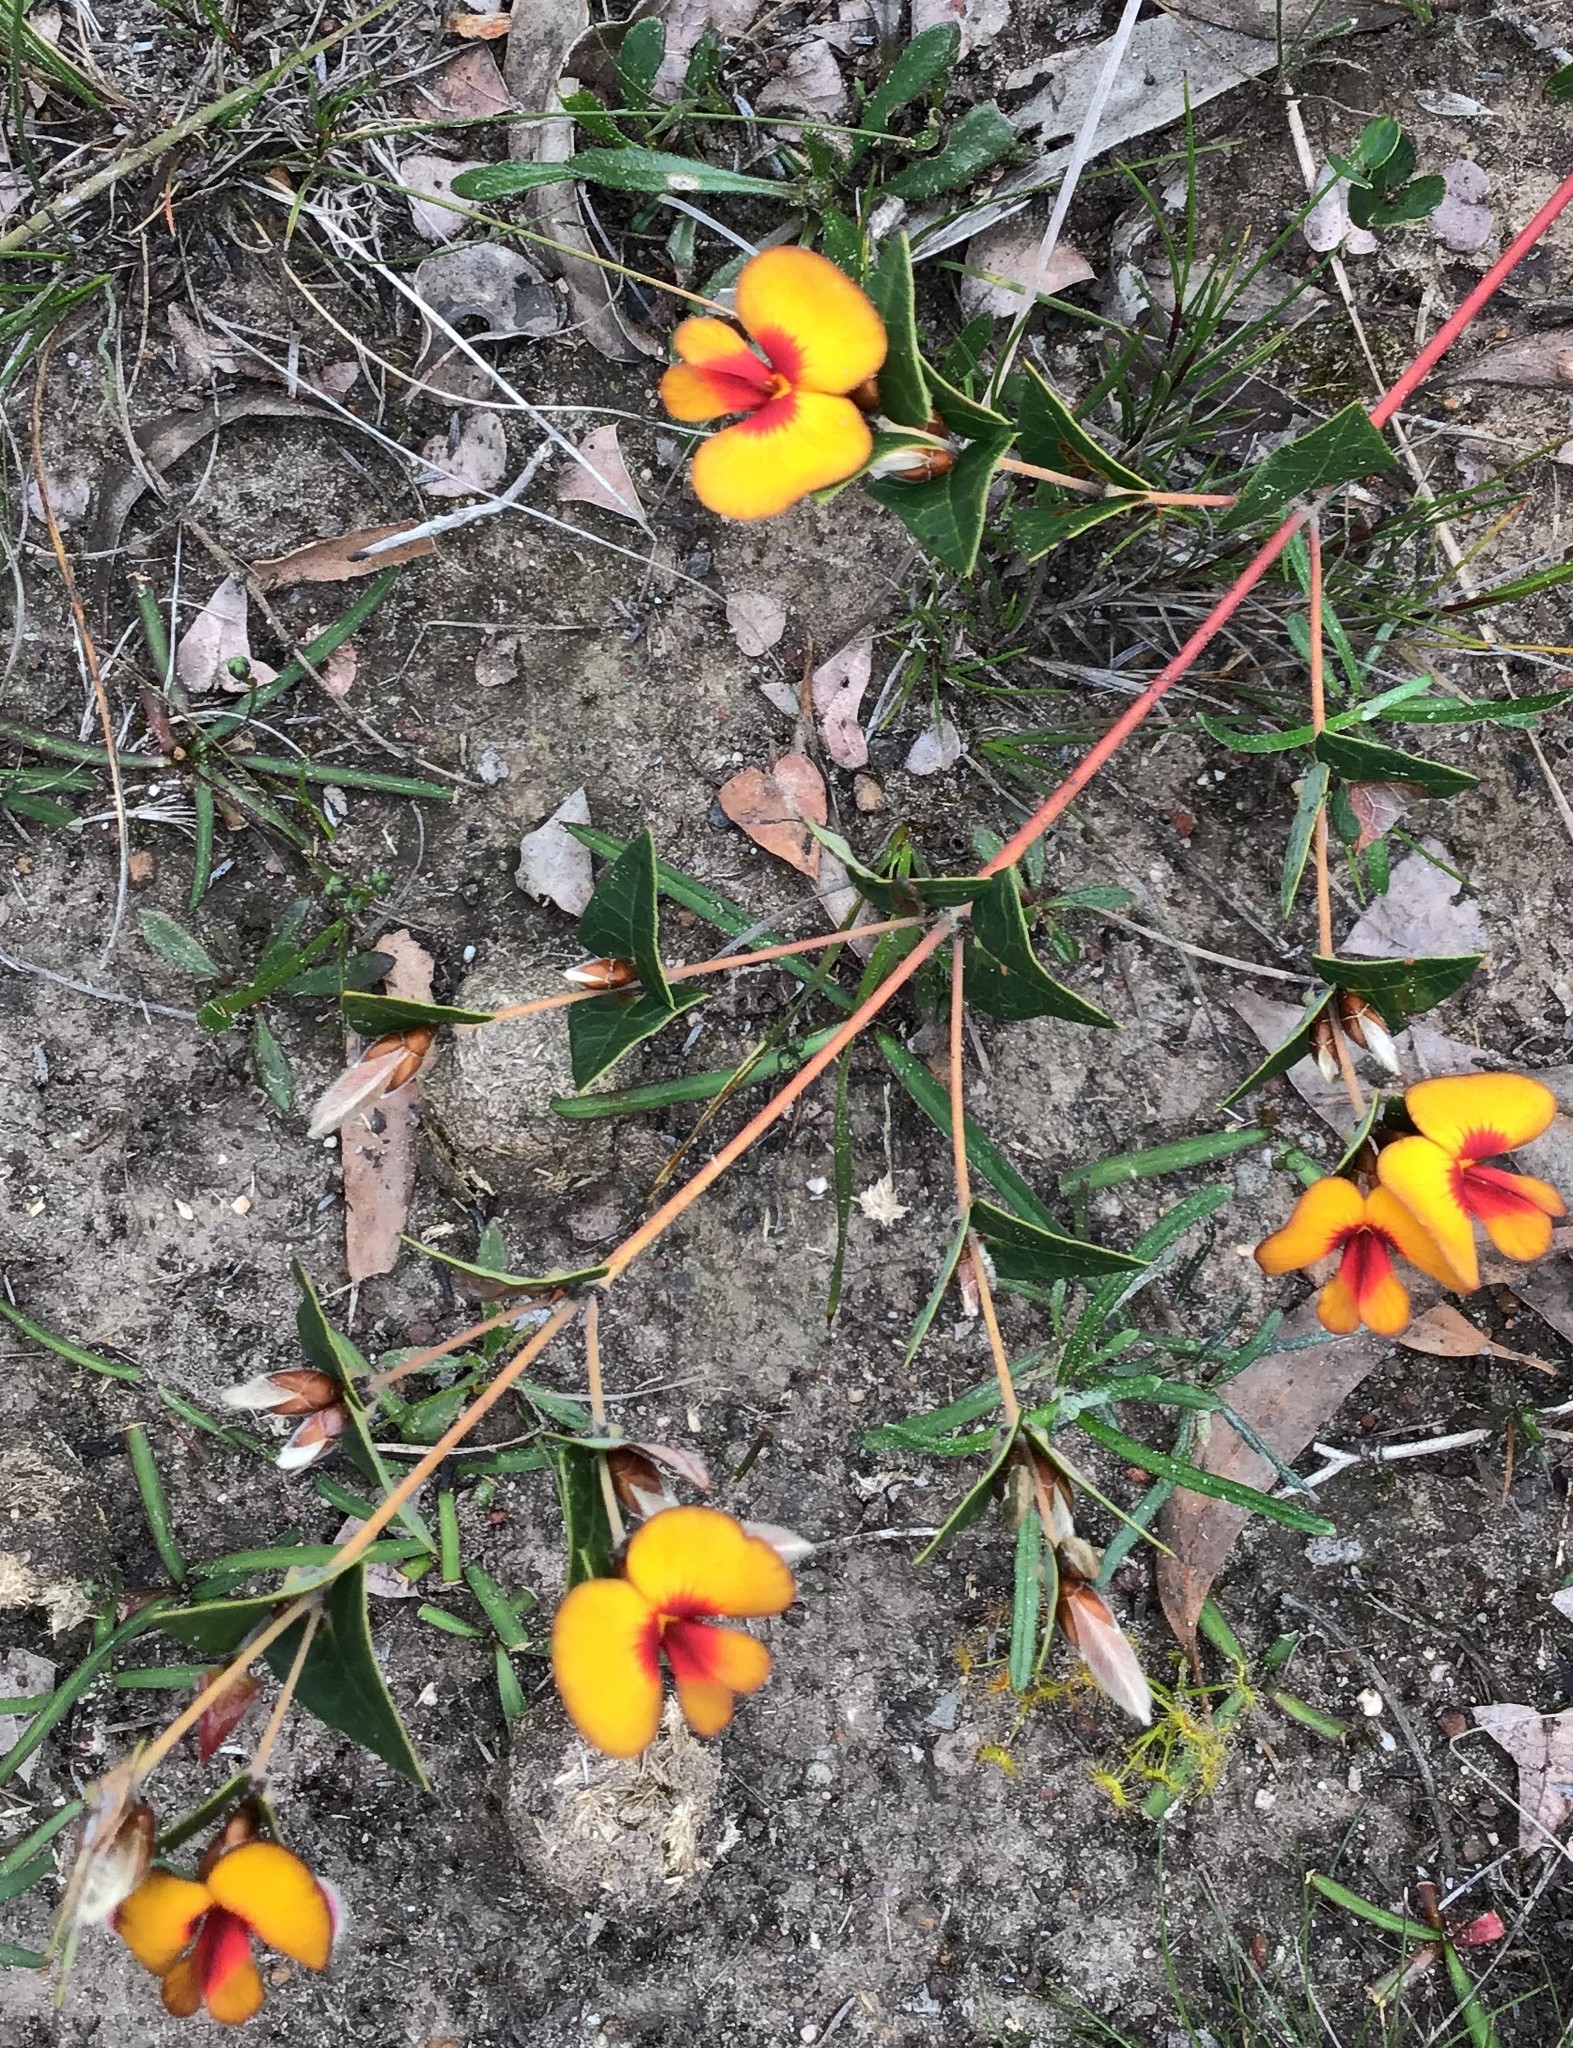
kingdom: Plantae
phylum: Tracheophyta
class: Magnoliopsida
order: Fabales
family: Fabaceae
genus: Platylobium
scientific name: Platylobium obtusangulum
